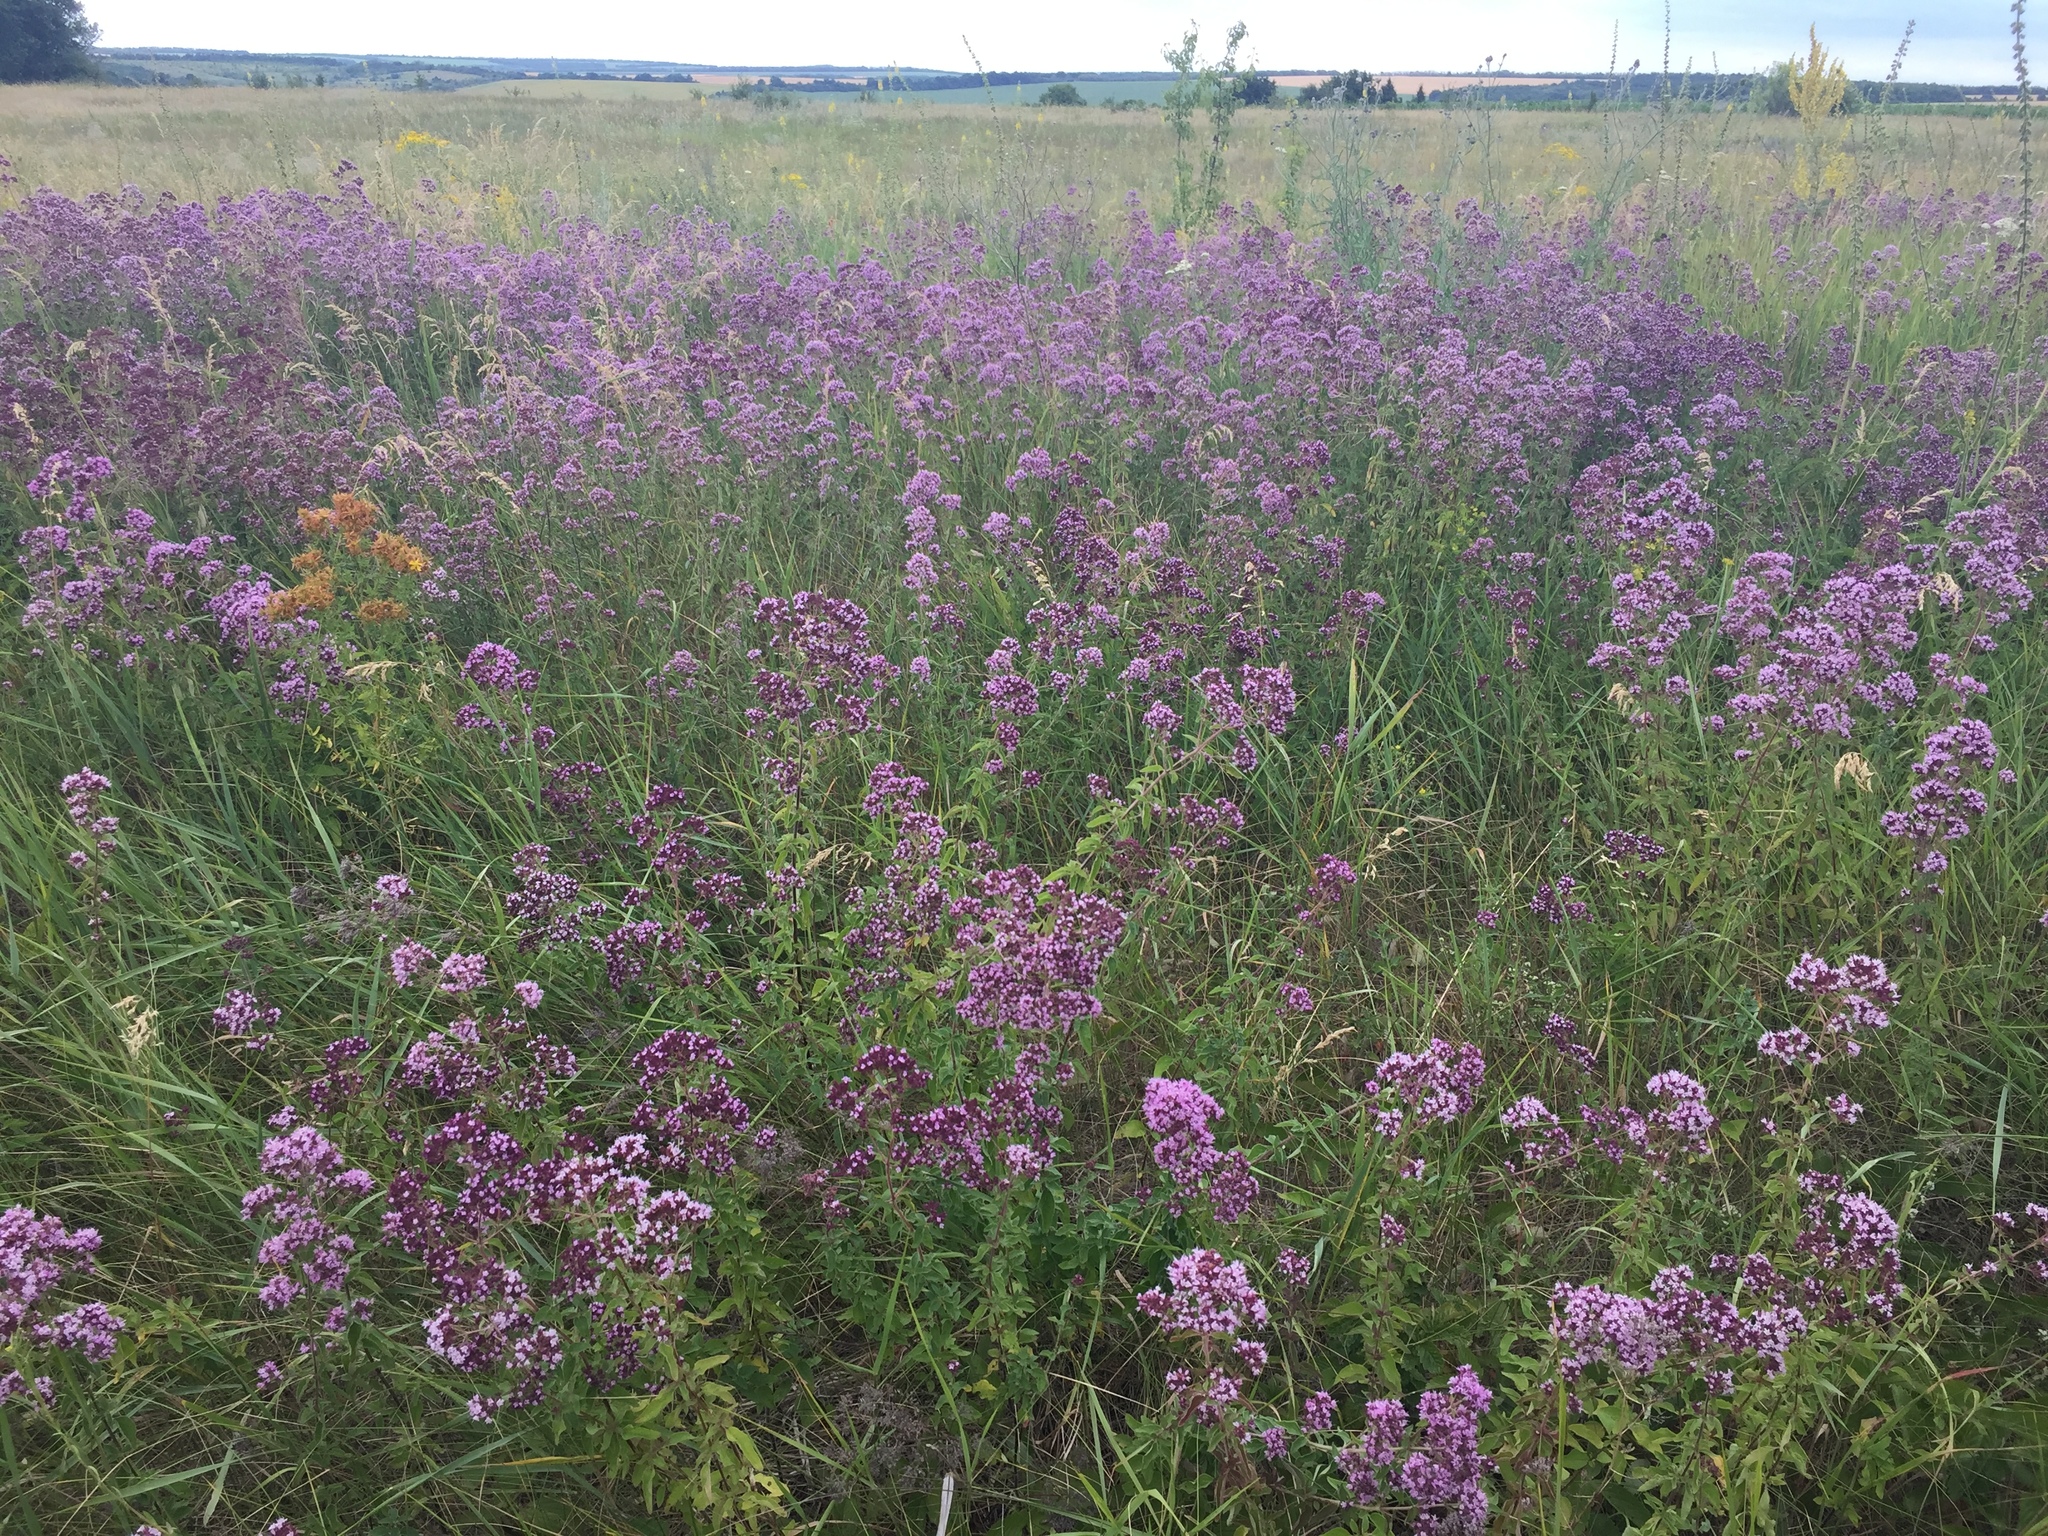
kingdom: Plantae
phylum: Tracheophyta
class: Magnoliopsida
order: Lamiales
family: Lamiaceae
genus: Origanum
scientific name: Origanum vulgare
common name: Wild marjoram
